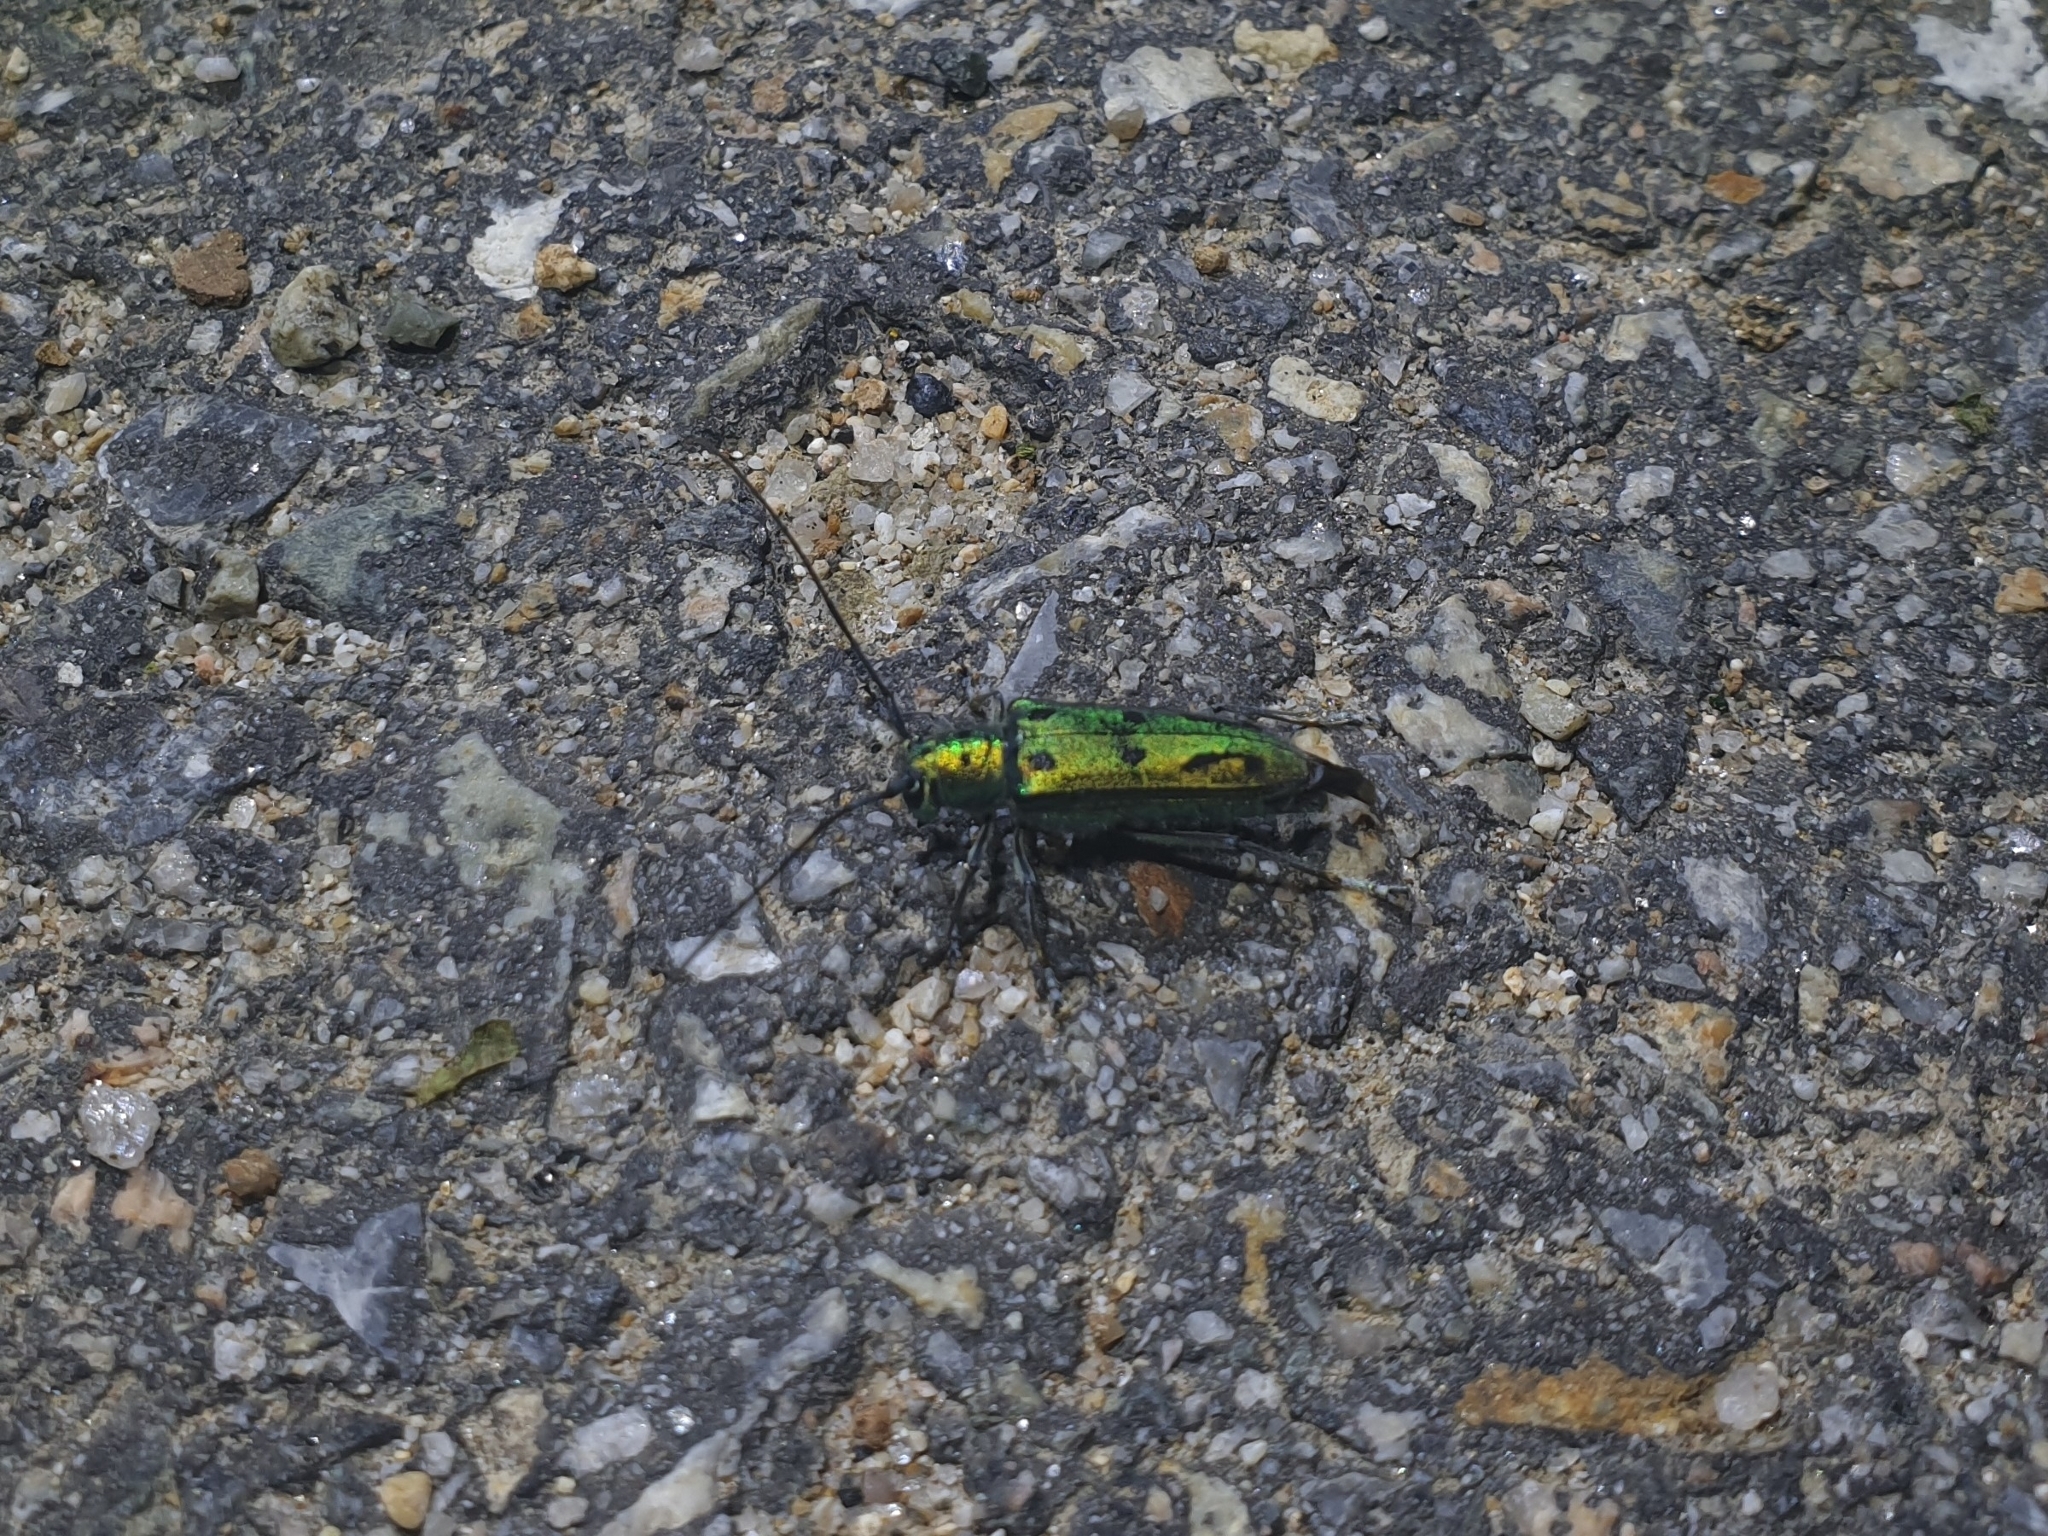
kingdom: Animalia
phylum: Arthropoda
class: Insecta
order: Coleoptera
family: Cerambycidae
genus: Eutetrapha
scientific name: Eutetrapha metallescens
